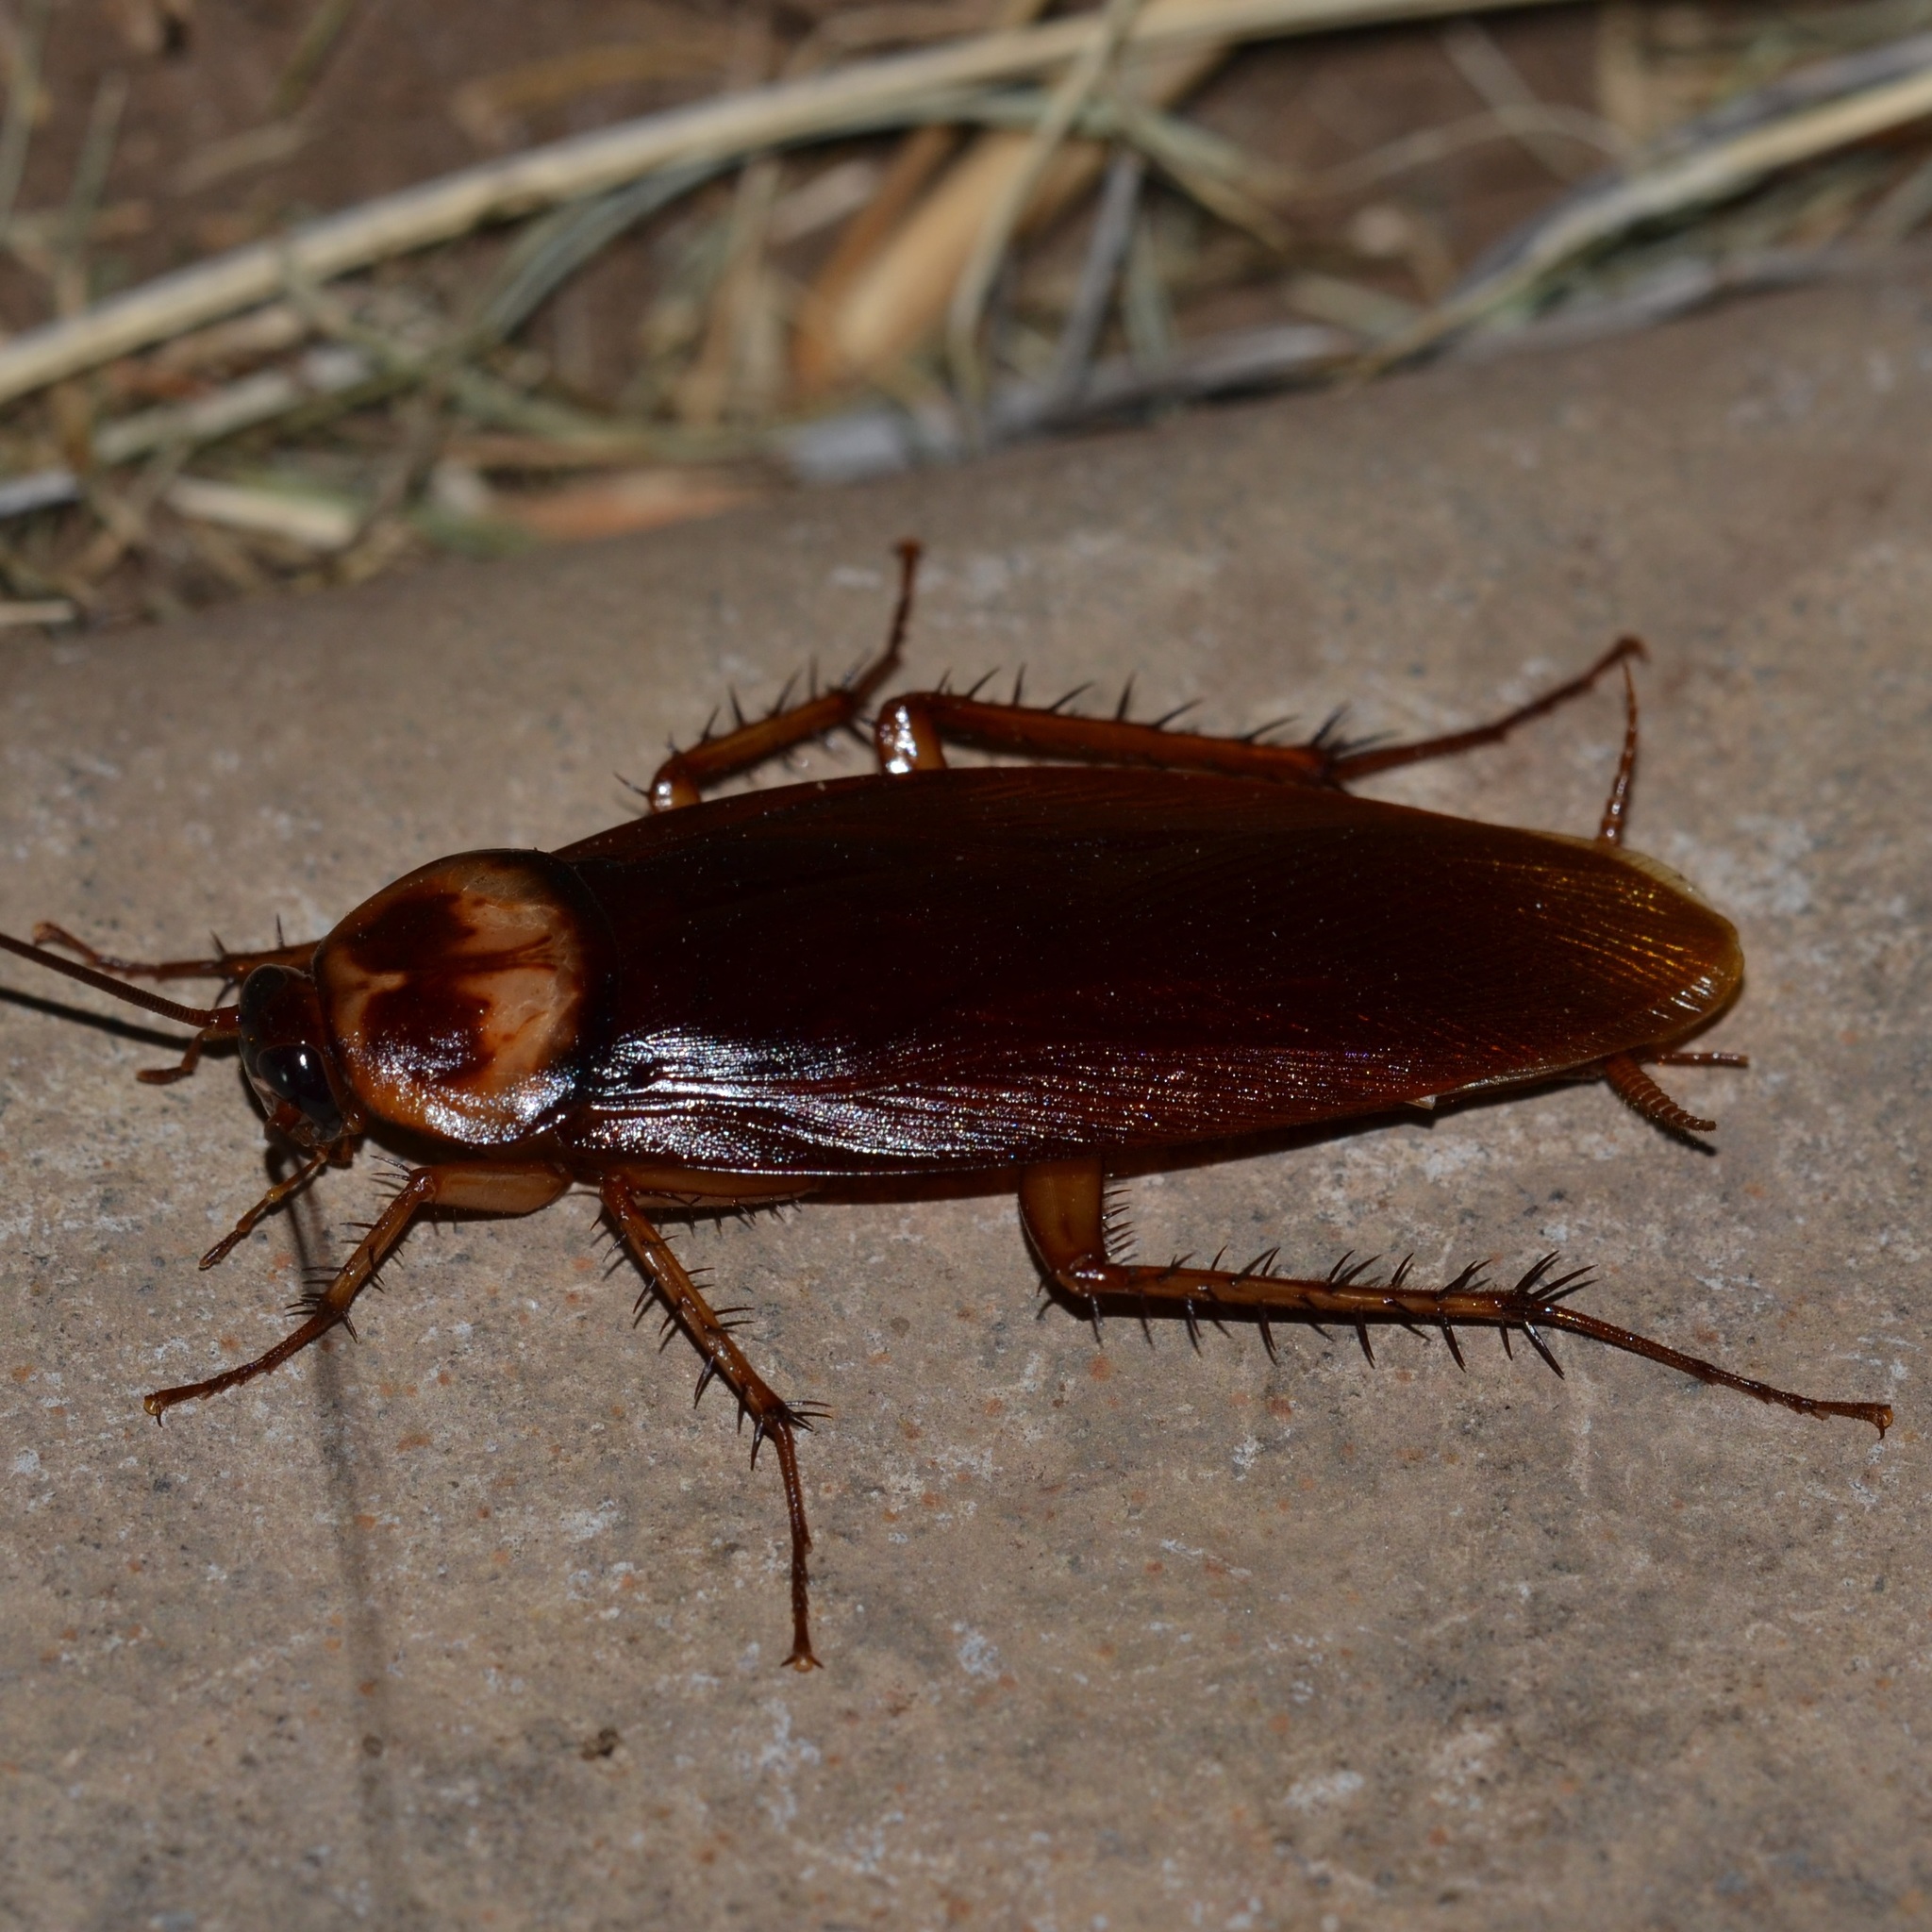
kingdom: Animalia
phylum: Arthropoda
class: Insecta
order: Blattodea
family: Blattidae
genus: Periplaneta
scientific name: Periplaneta americana
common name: American cockroach
